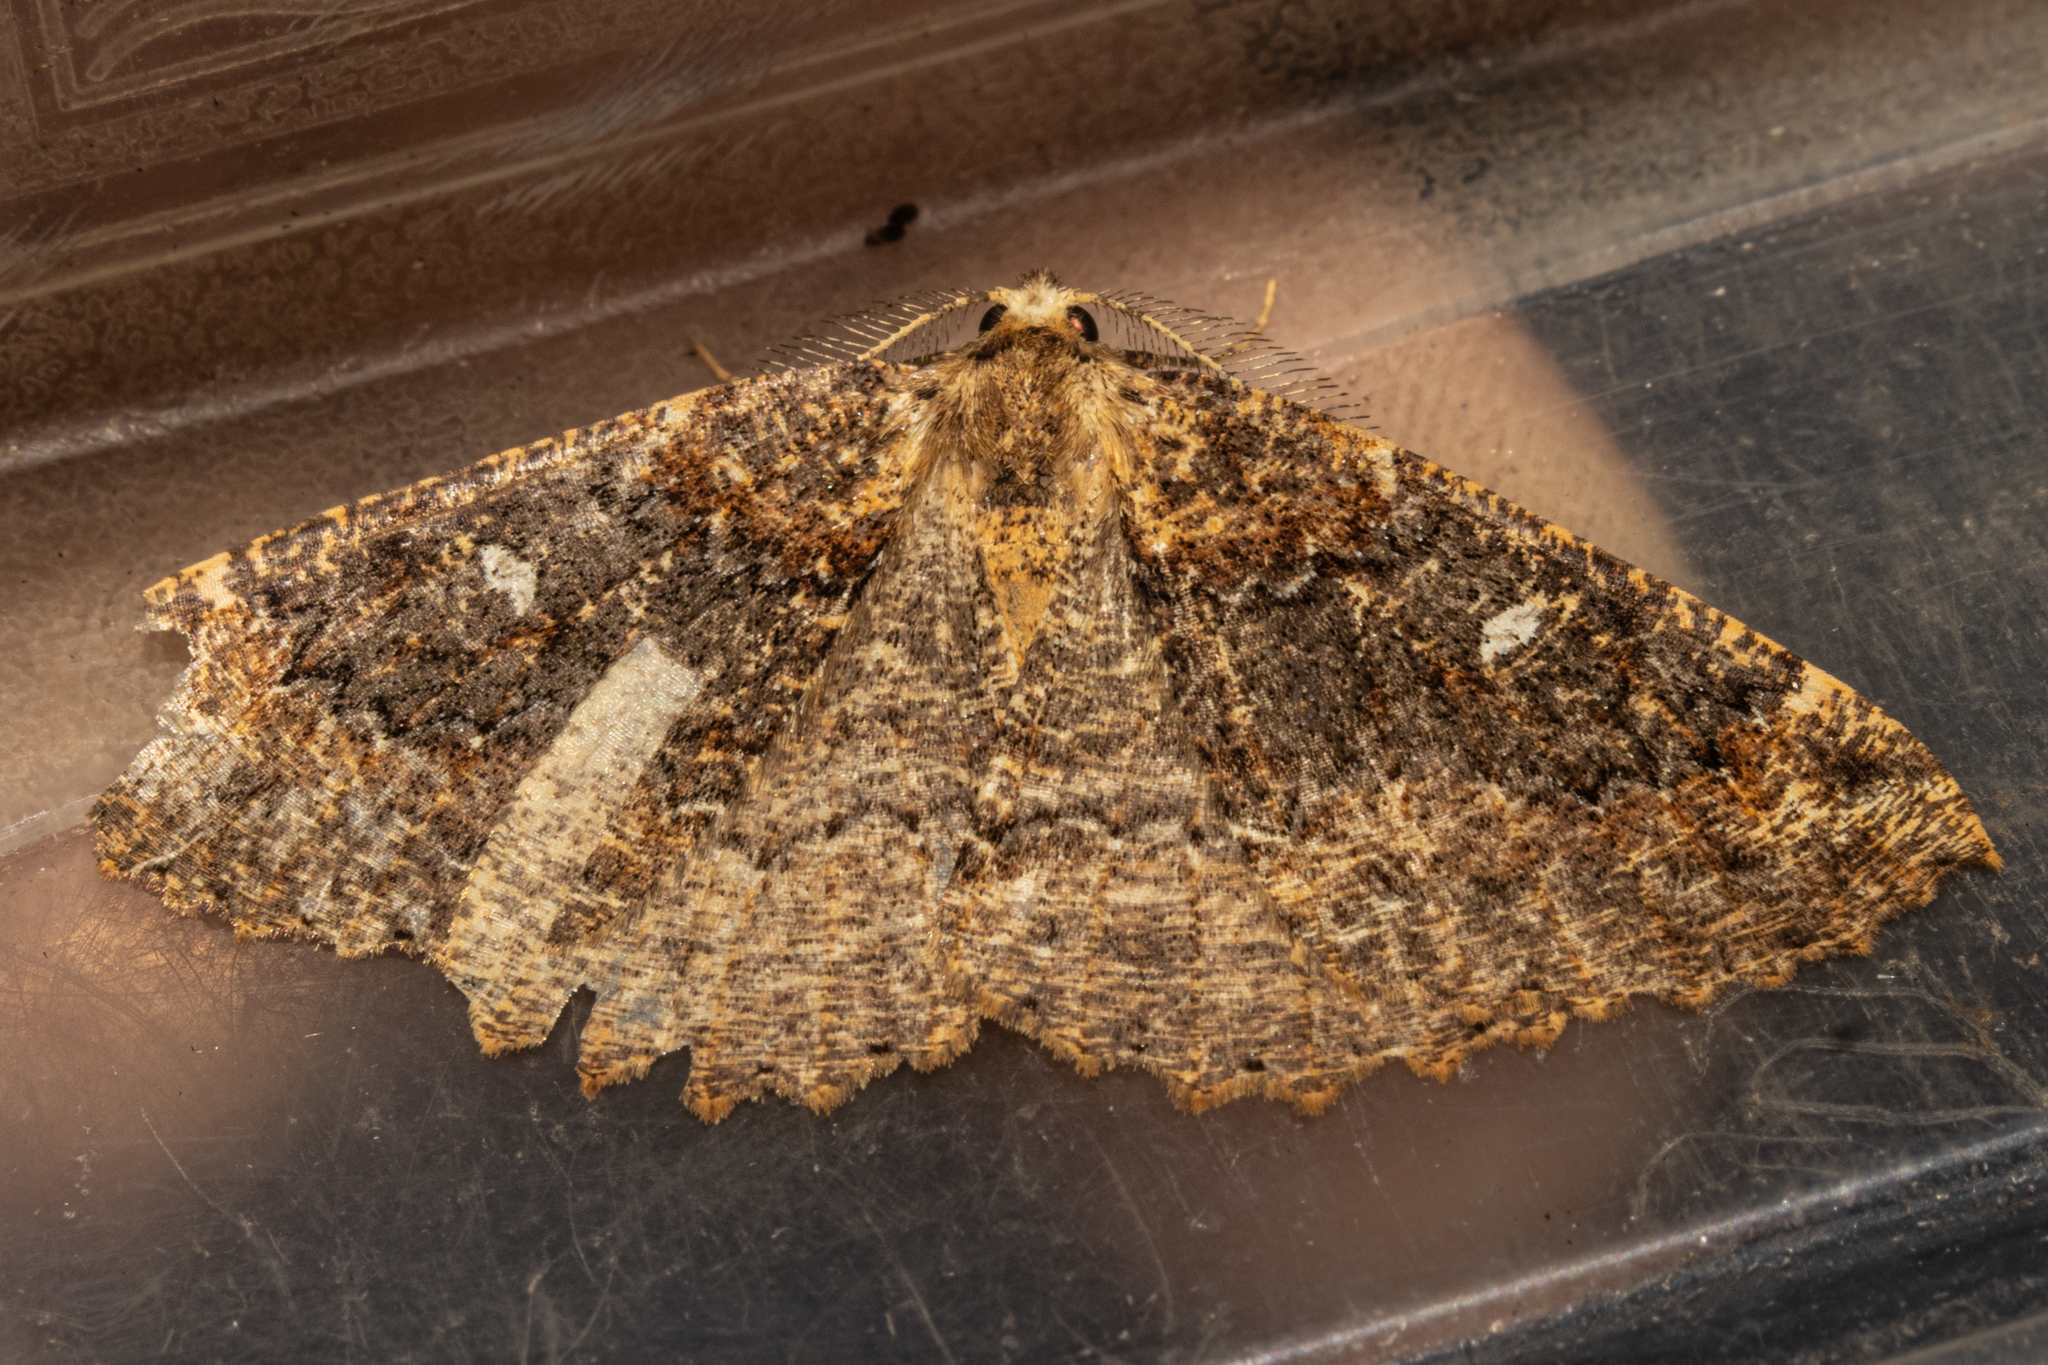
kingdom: Animalia
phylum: Arthropoda
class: Insecta
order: Lepidoptera
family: Geometridae
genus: Cleora
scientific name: Cleora scriptaria
